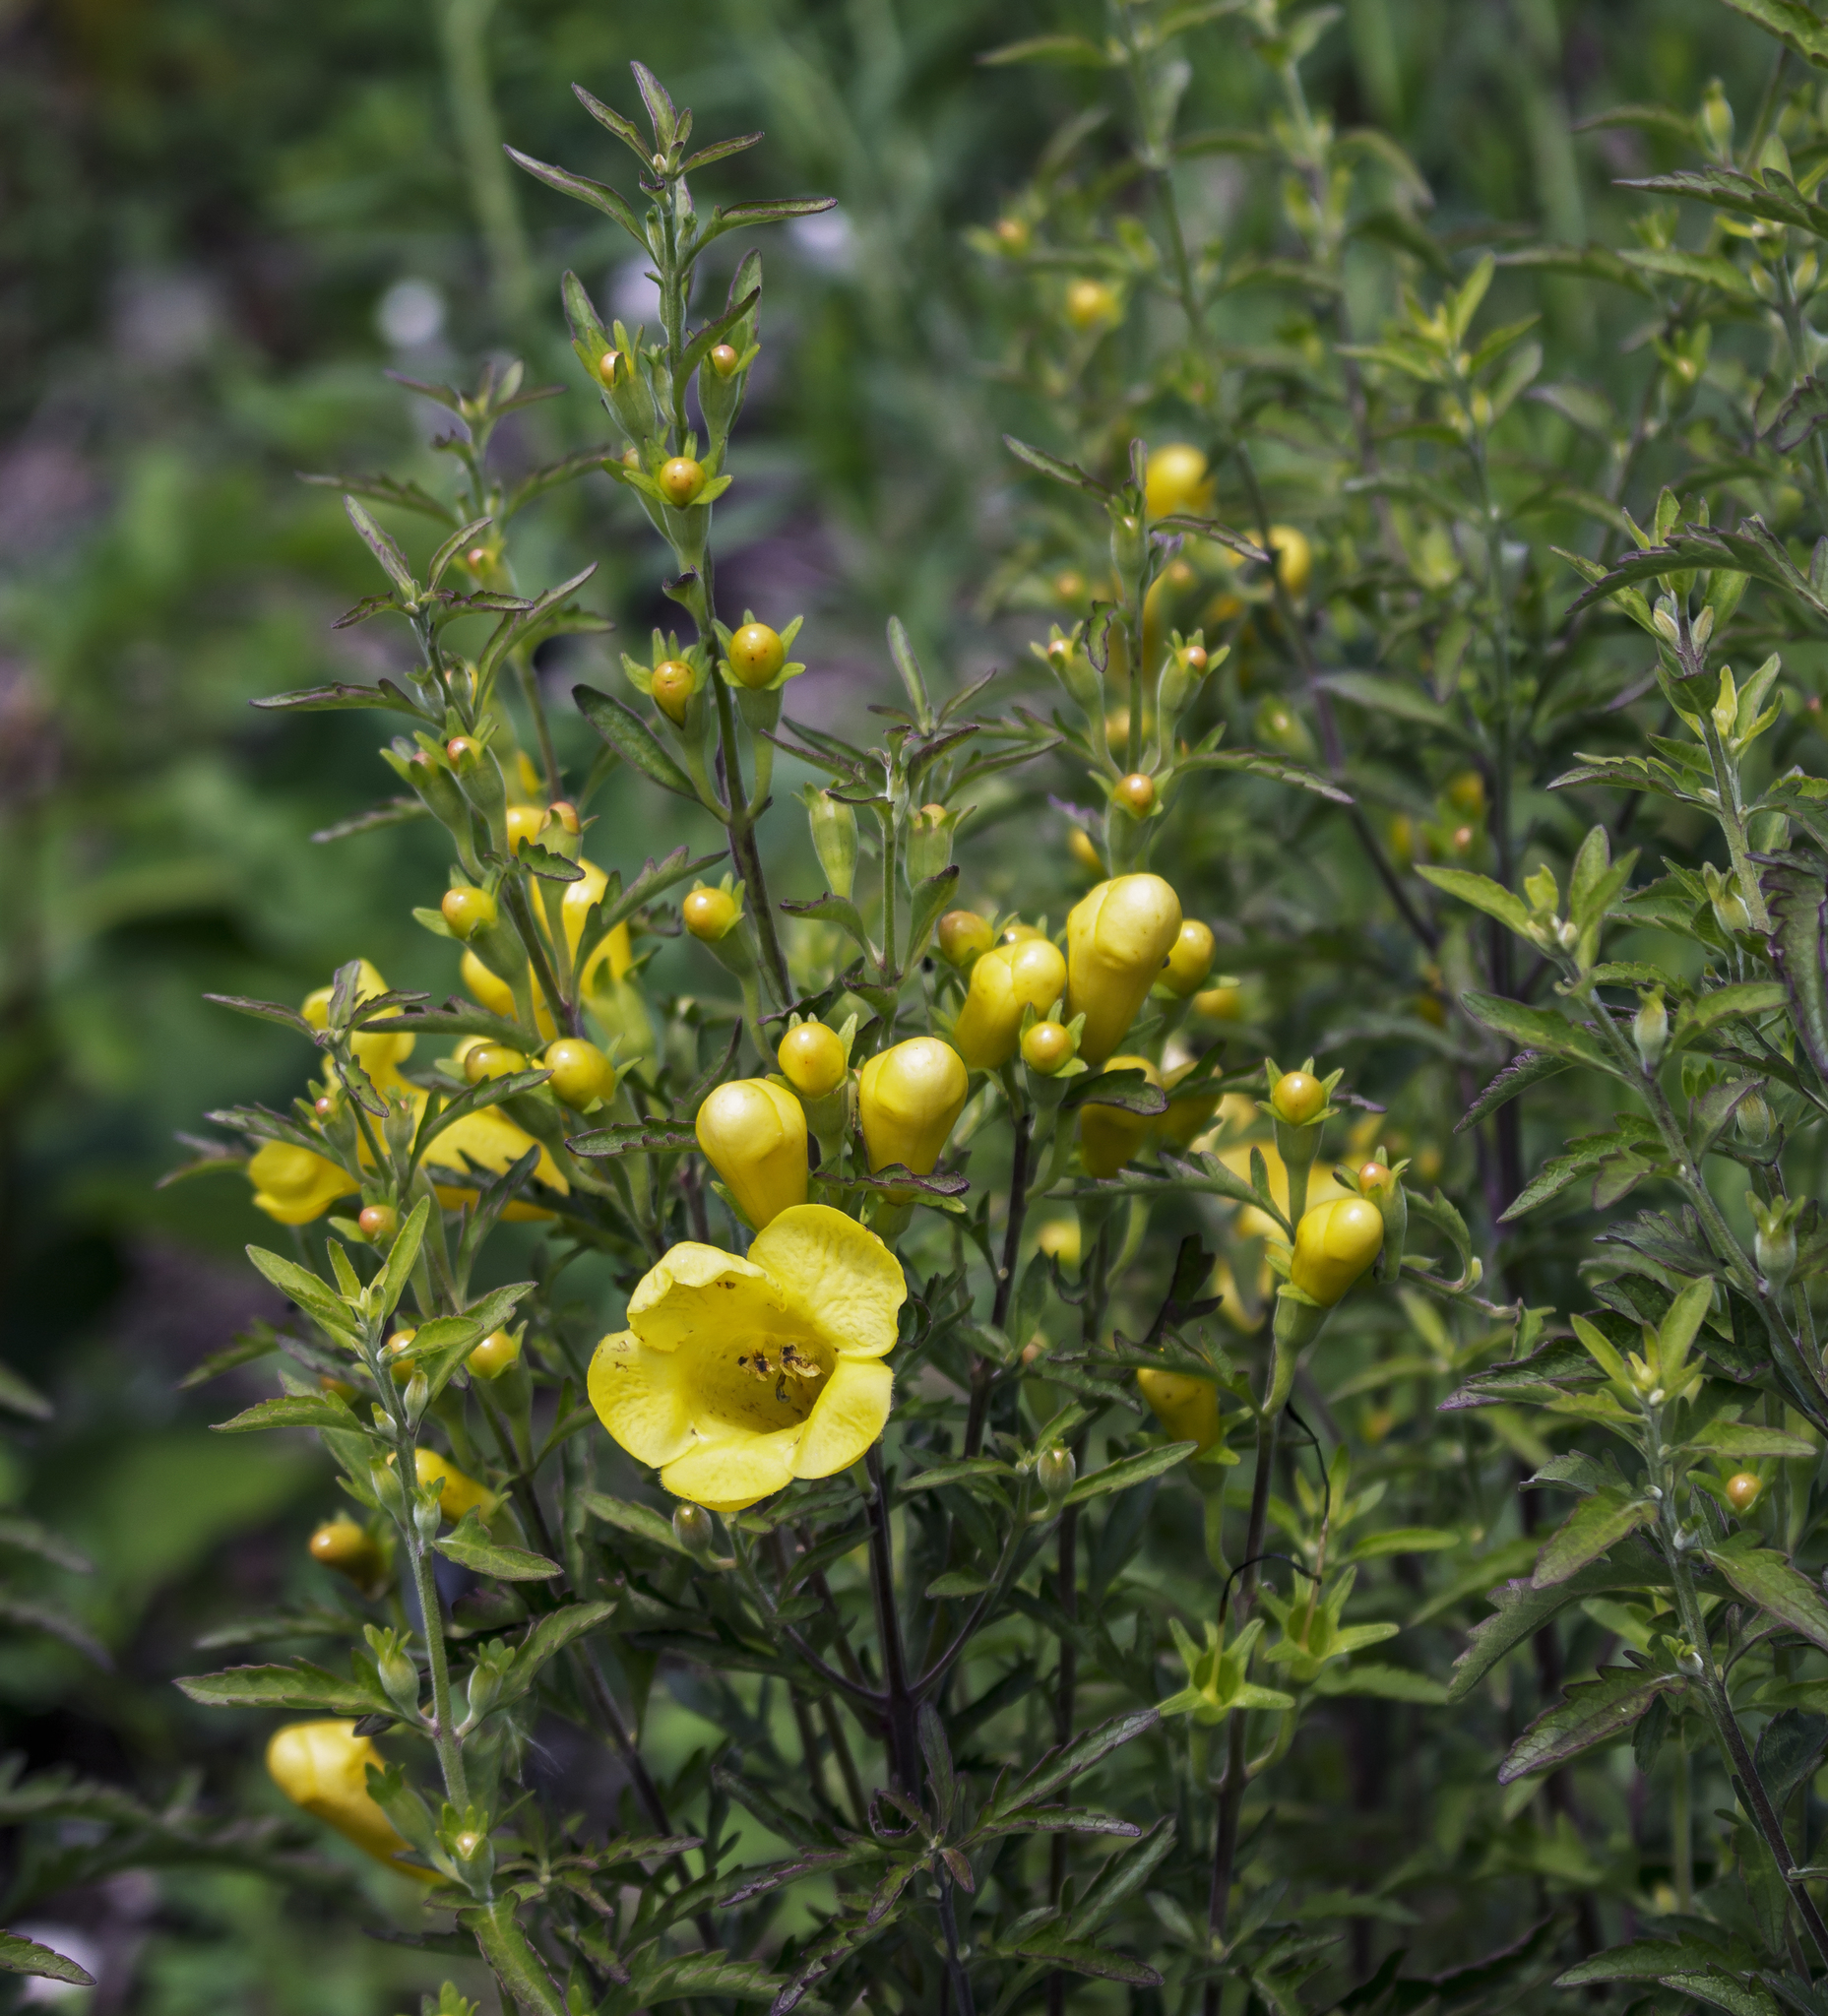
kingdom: Plantae
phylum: Tracheophyta
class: Magnoliopsida
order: Lamiales
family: Orobanchaceae
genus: Aureolaria
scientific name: Aureolaria grandiflora
